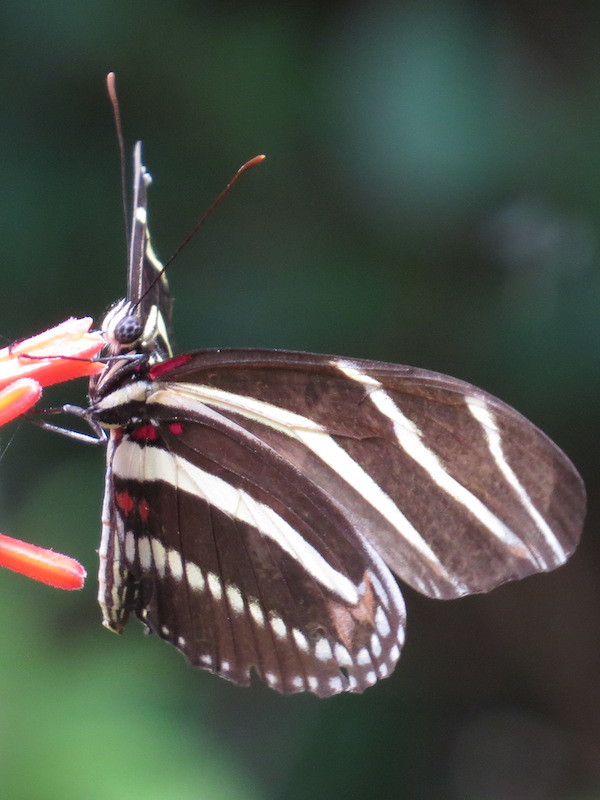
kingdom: Animalia
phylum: Arthropoda
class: Insecta
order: Lepidoptera
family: Nymphalidae
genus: Heliconius
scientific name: Heliconius charithonia
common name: Zebra long wing
